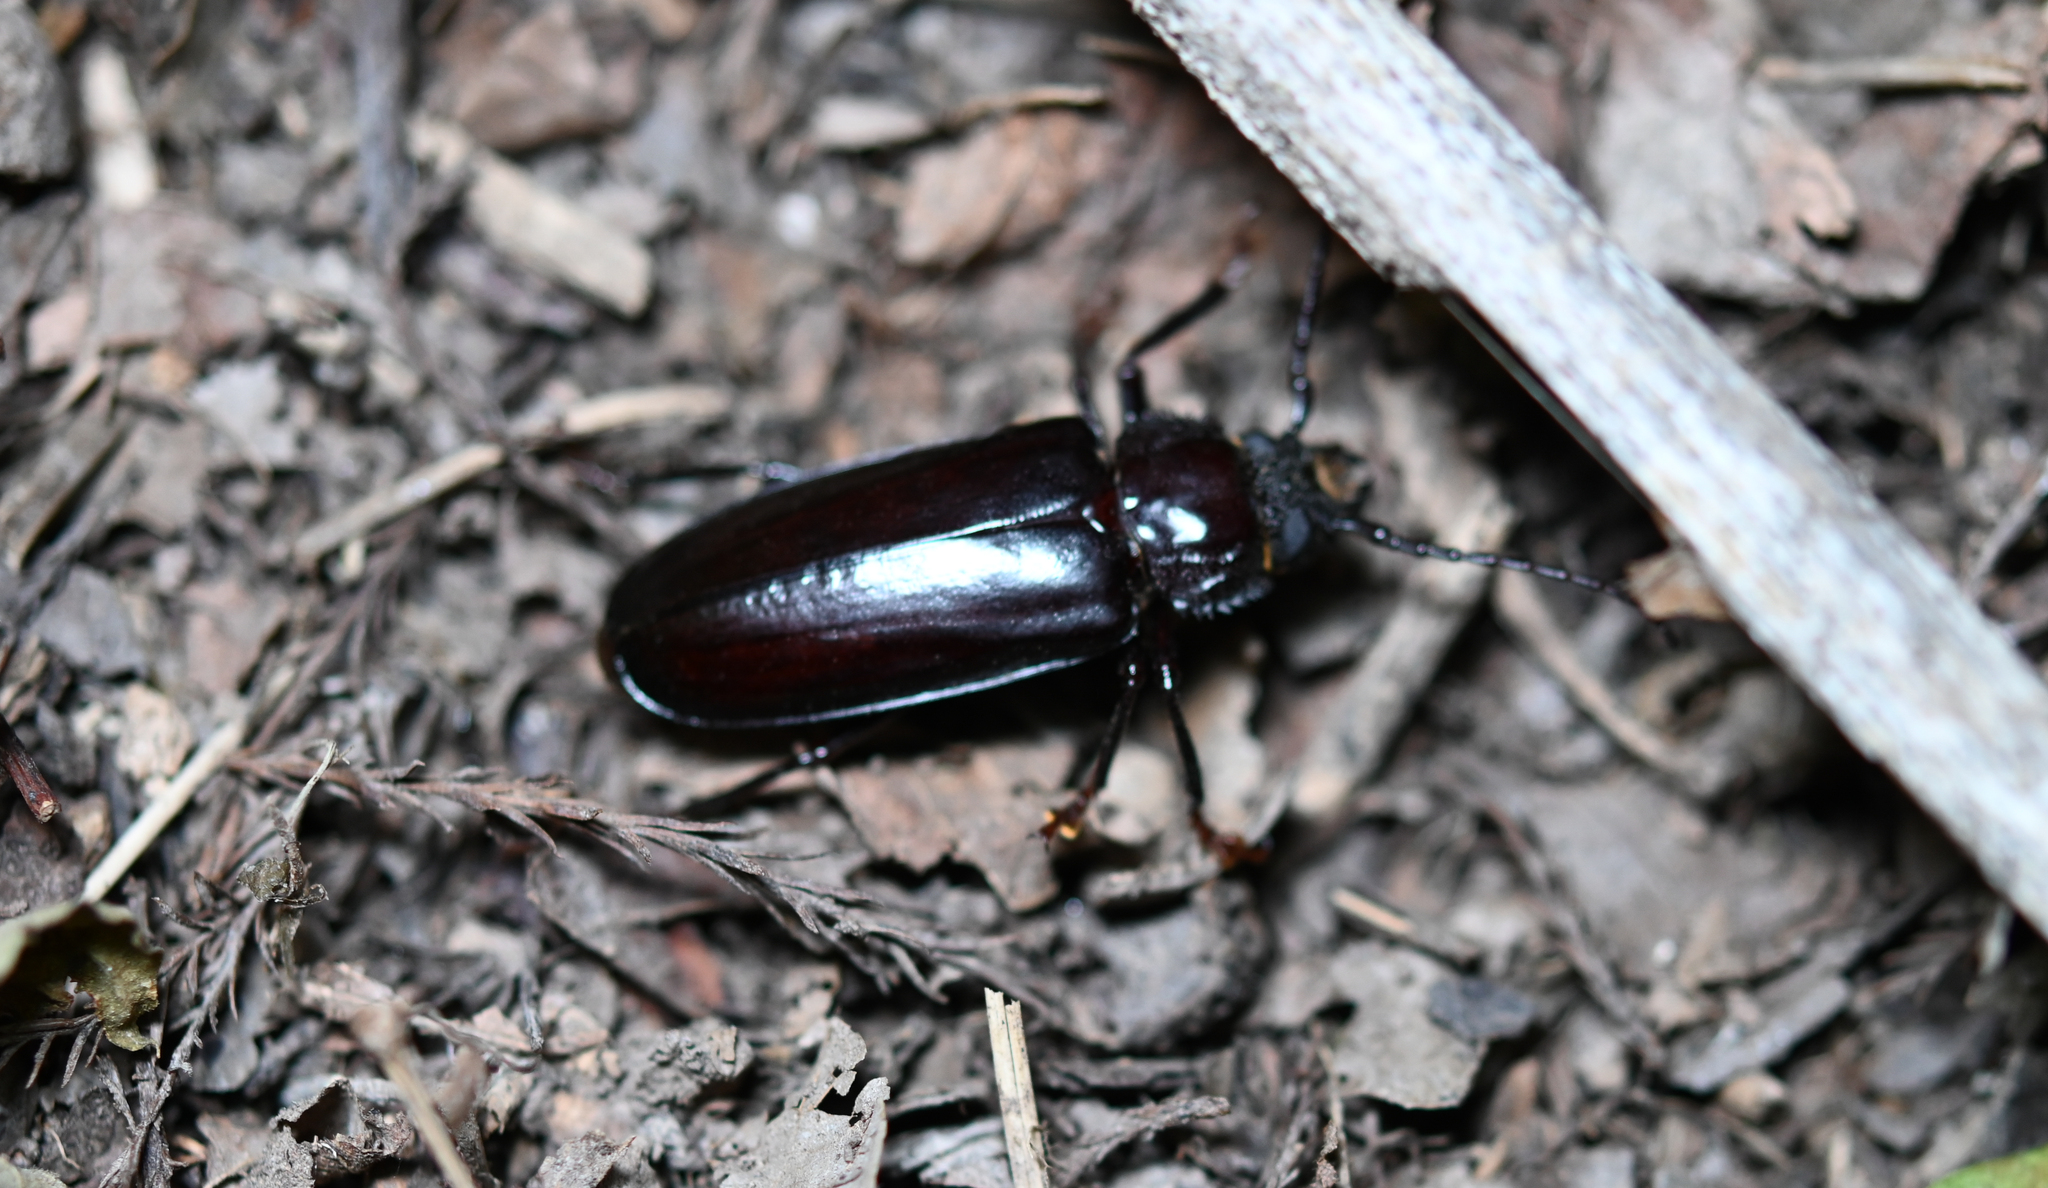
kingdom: Animalia
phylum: Arthropoda
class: Insecta
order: Coleoptera
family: Cerambycidae
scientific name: Cerambycidae
